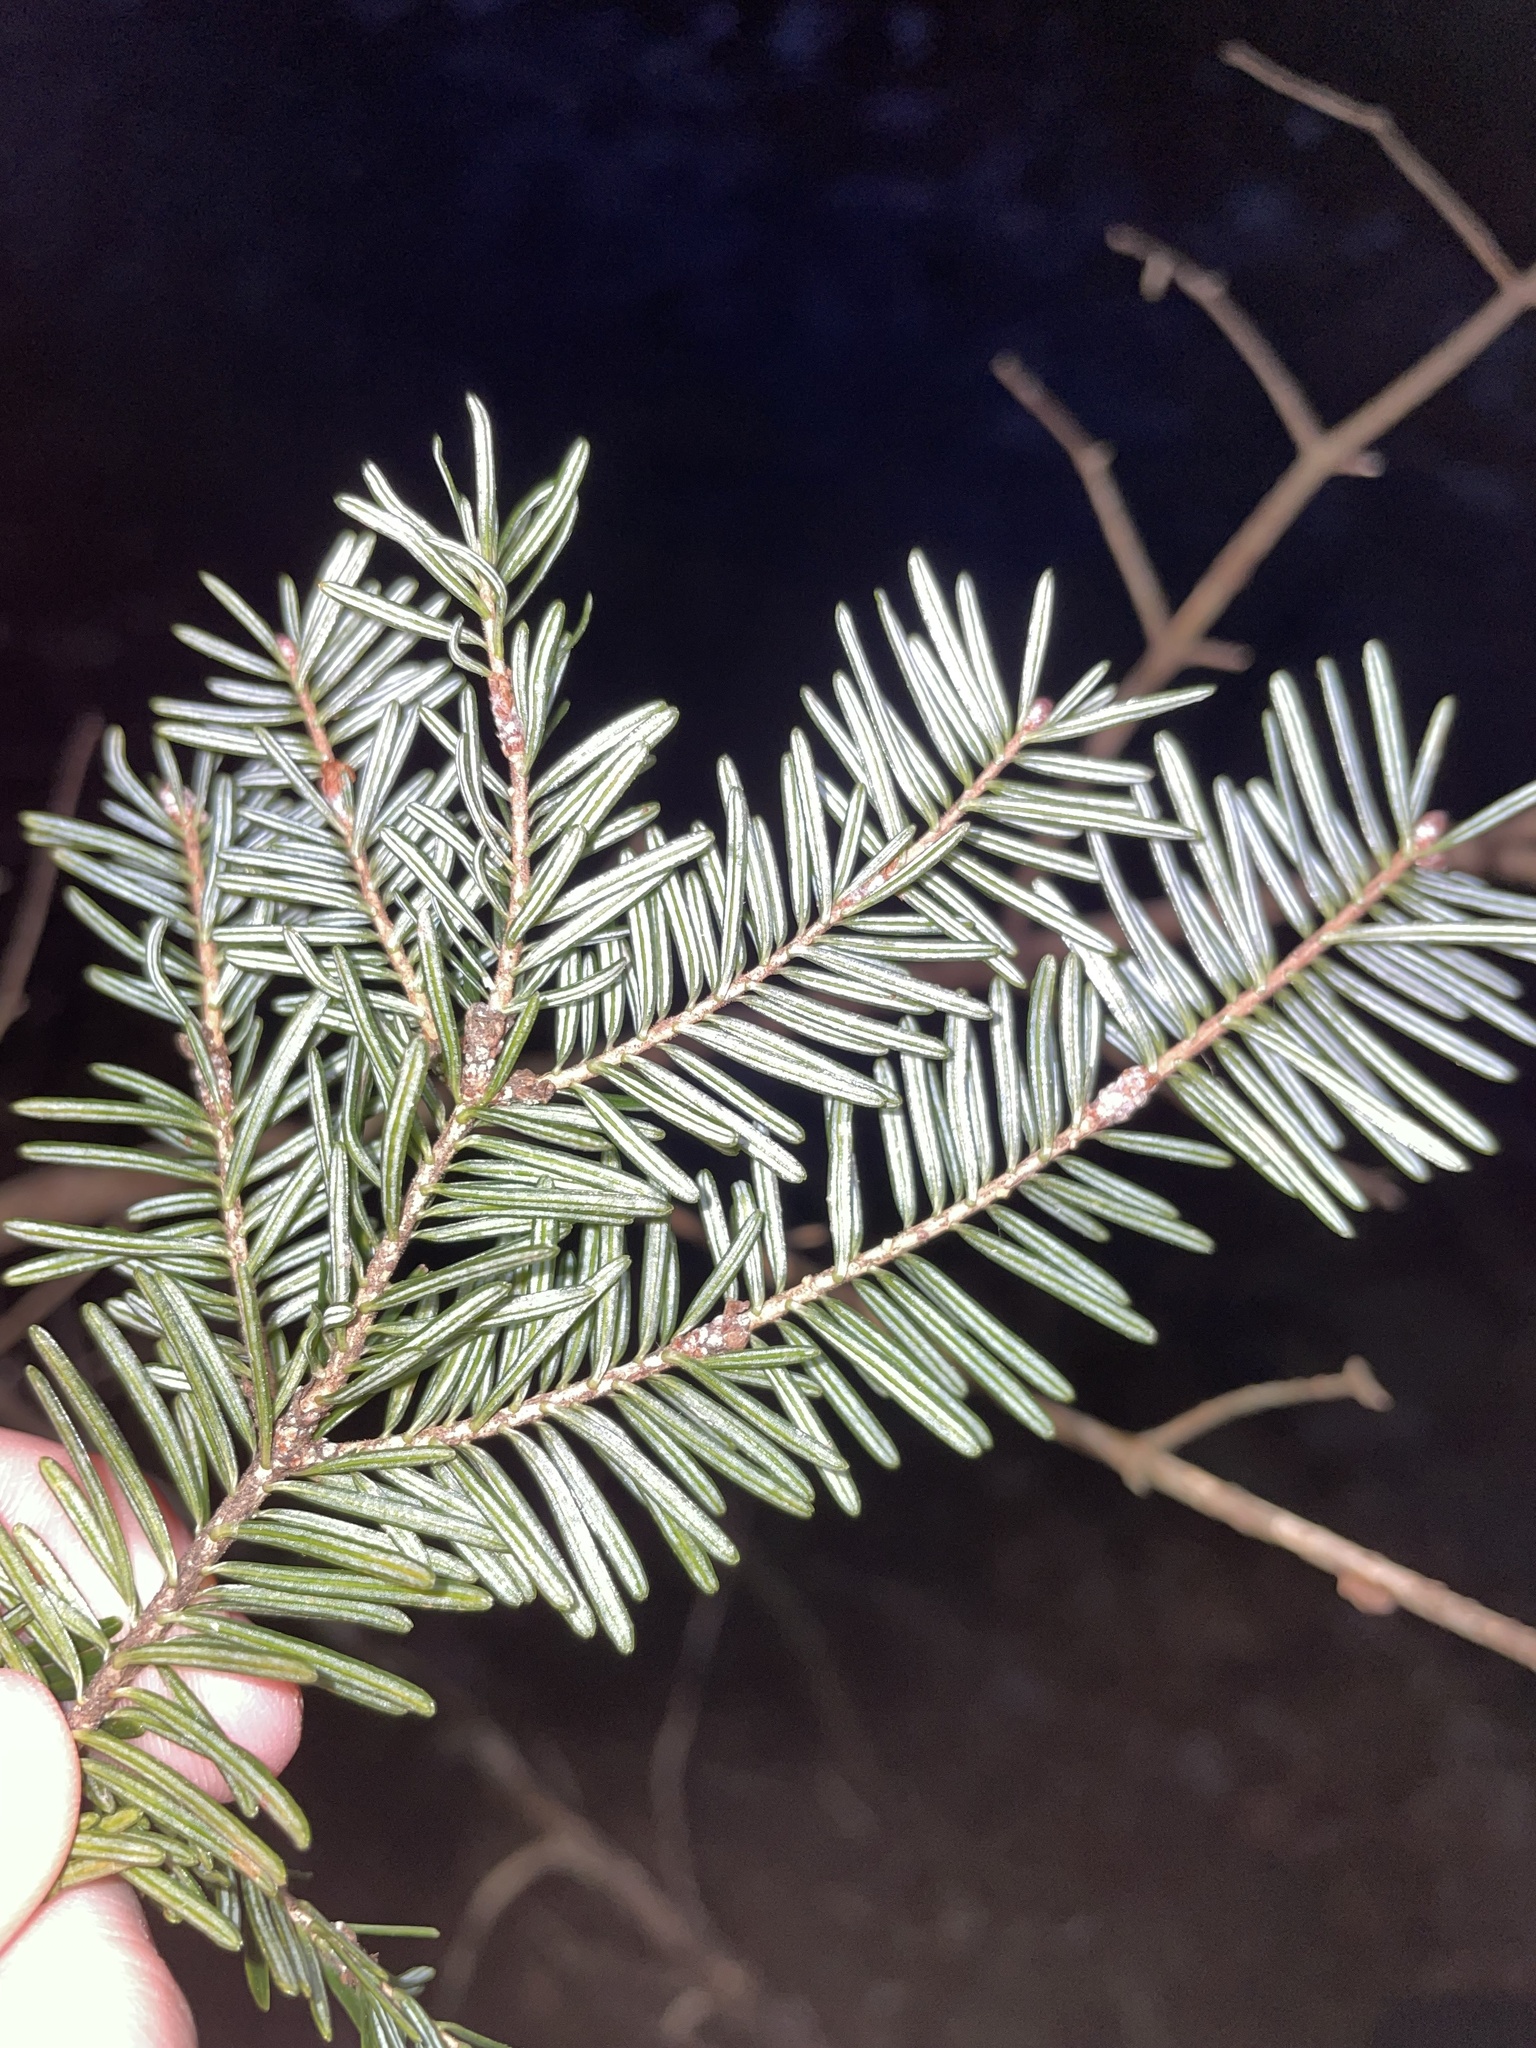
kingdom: Plantae
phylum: Tracheophyta
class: Pinopsida
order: Pinales
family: Pinaceae
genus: Abies
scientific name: Abies balsamea
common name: Balsam fir
